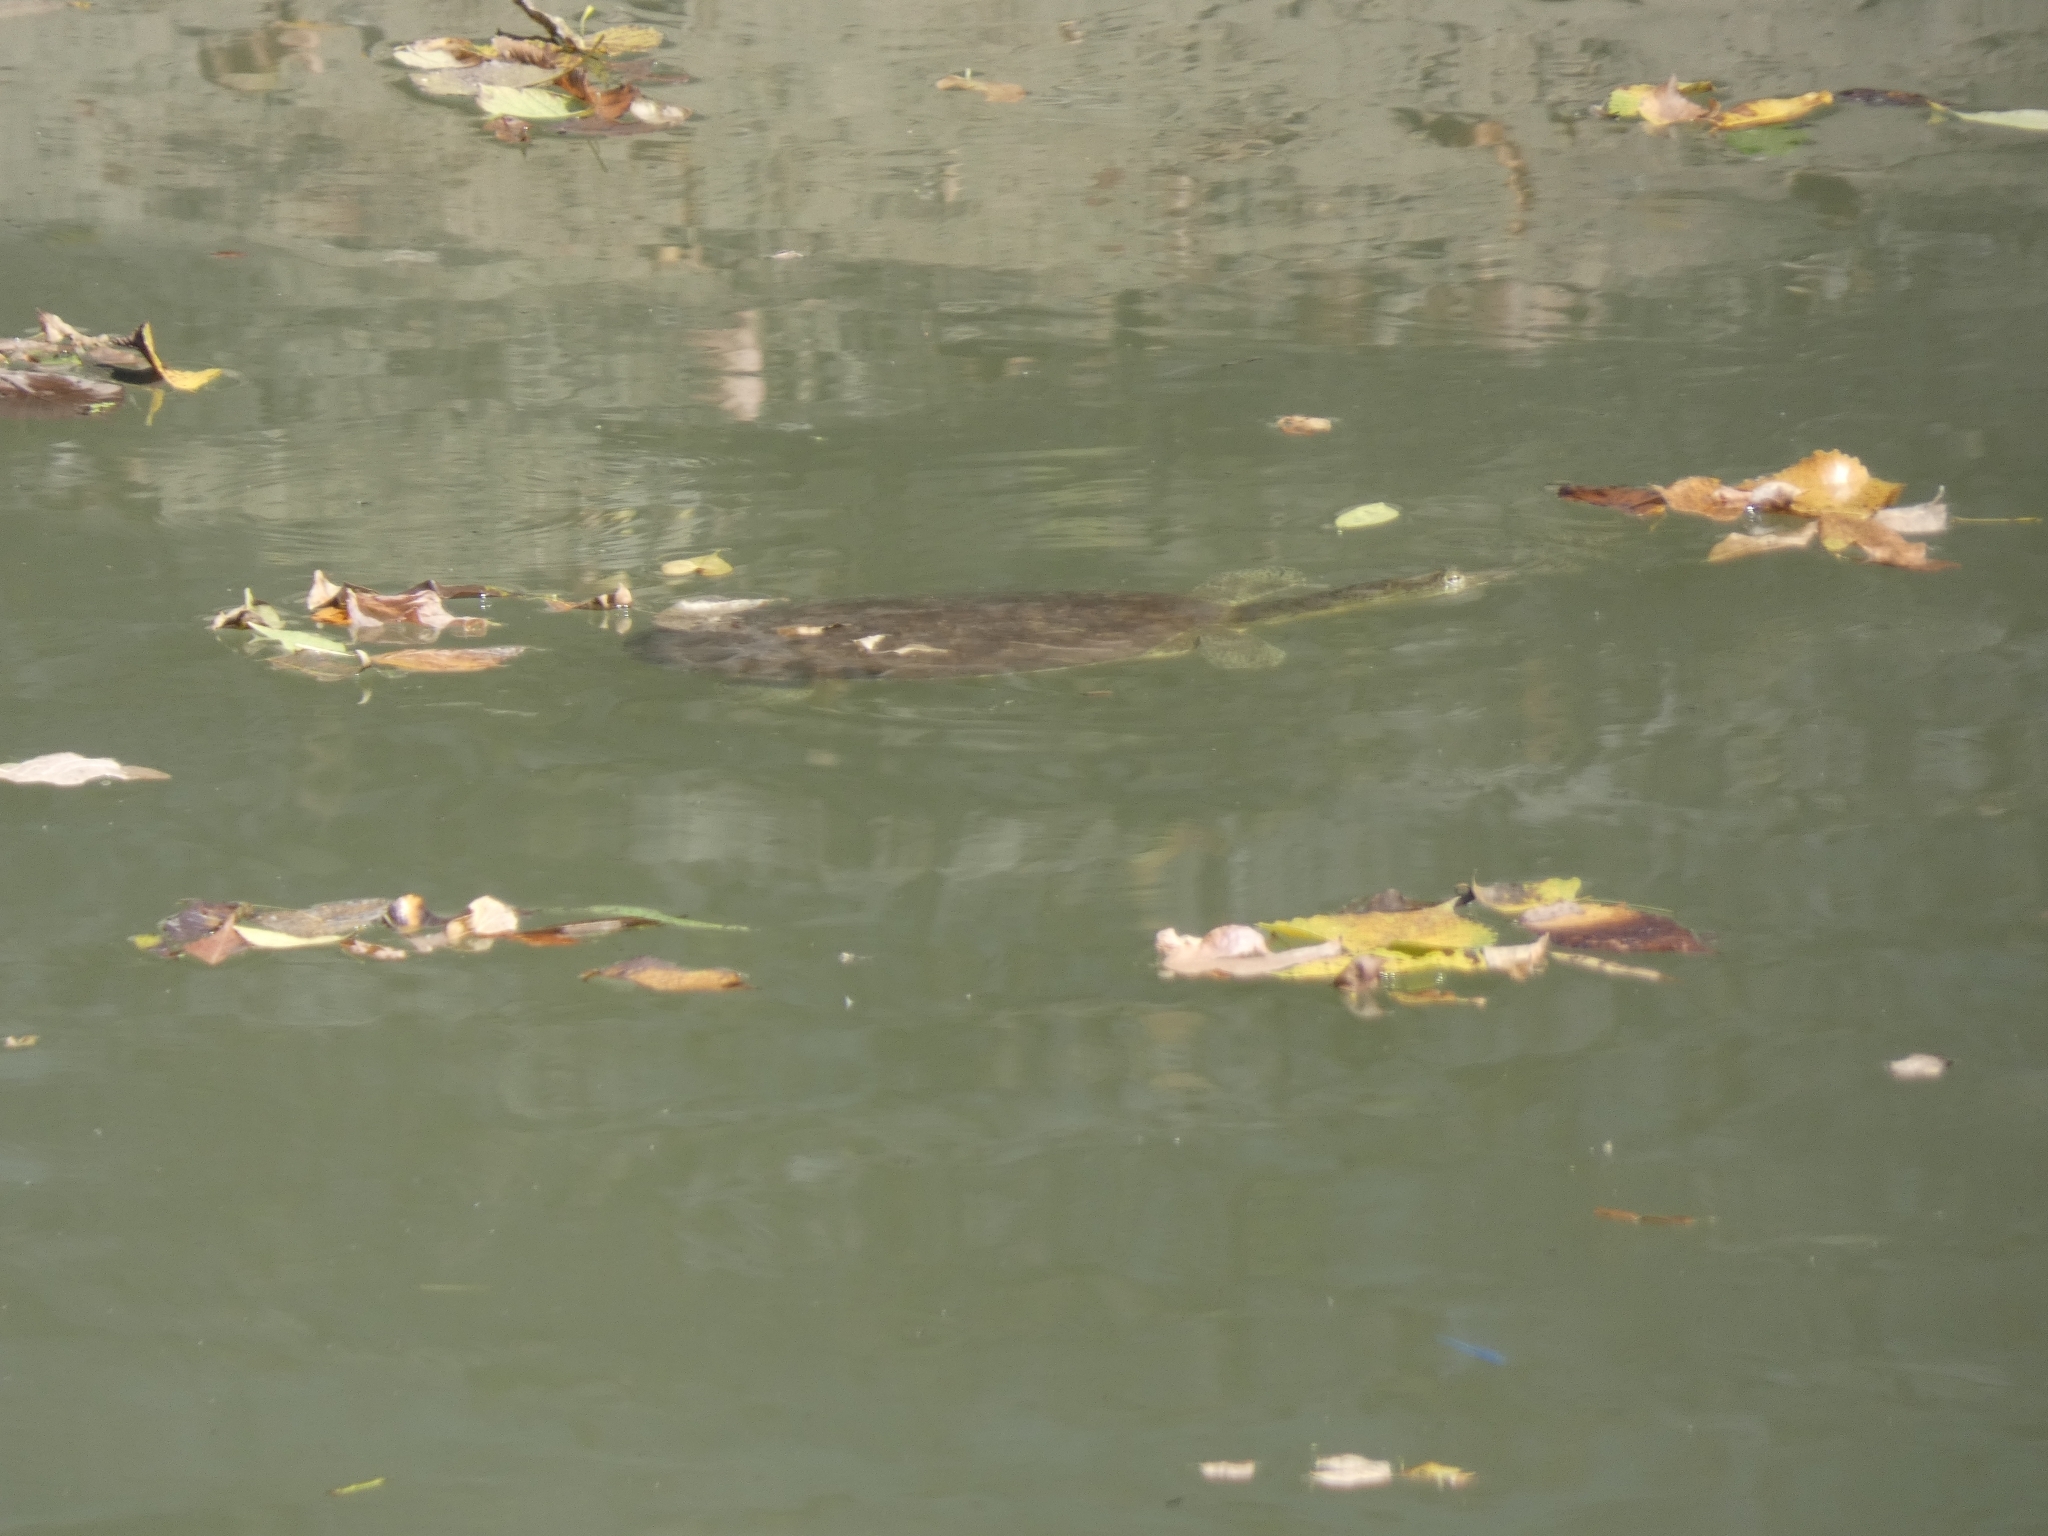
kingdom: Animalia
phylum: Chordata
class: Testudines
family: Trionychidae
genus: Apalone
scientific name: Apalone spinifera
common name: Spiny softshell turtle
